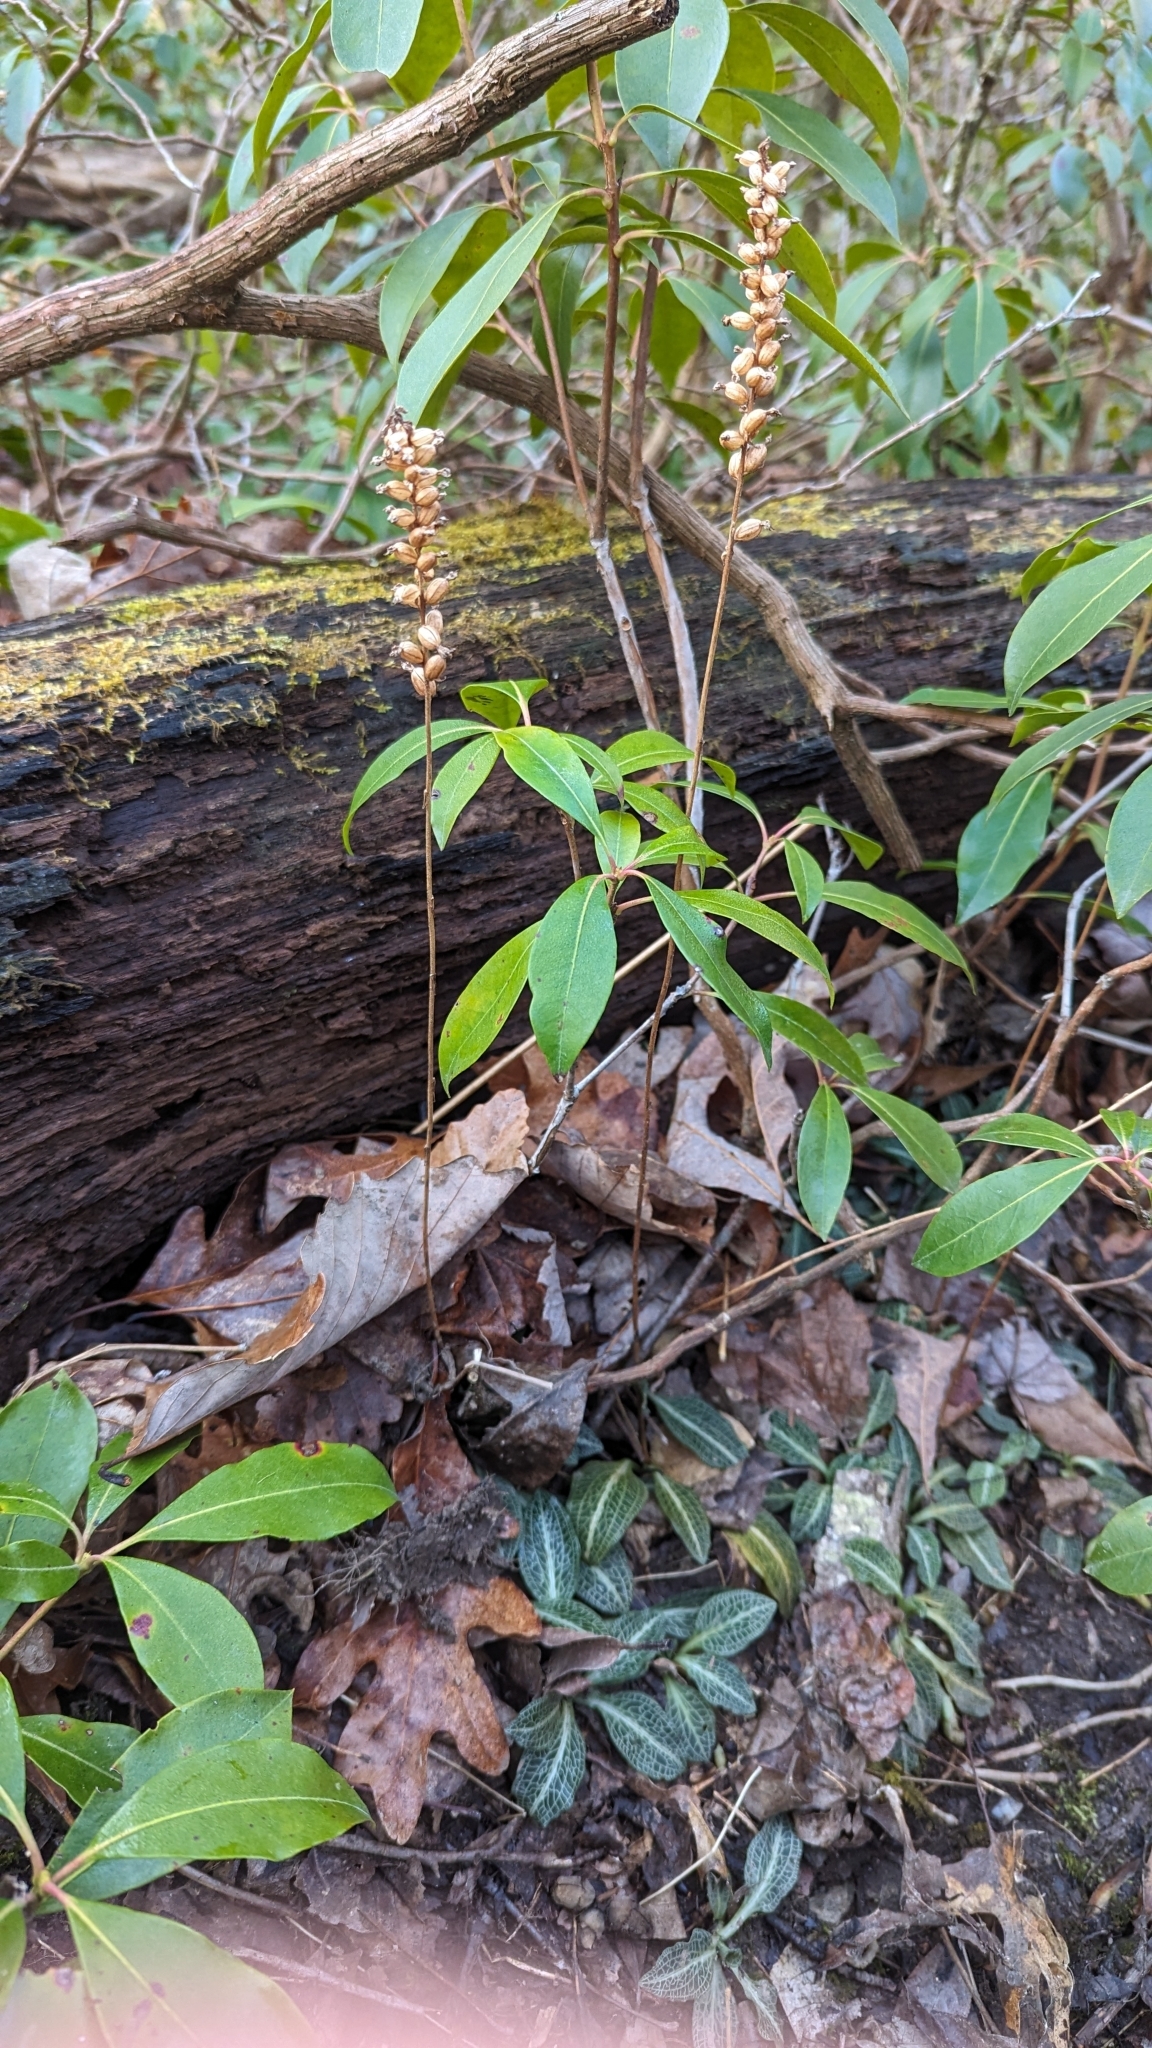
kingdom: Plantae
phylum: Tracheophyta
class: Liliopsida
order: Asparagales
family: Orchidaceae
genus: Goodyera
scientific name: Goodyera pubescens
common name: Downy rattlesnake-plantain
